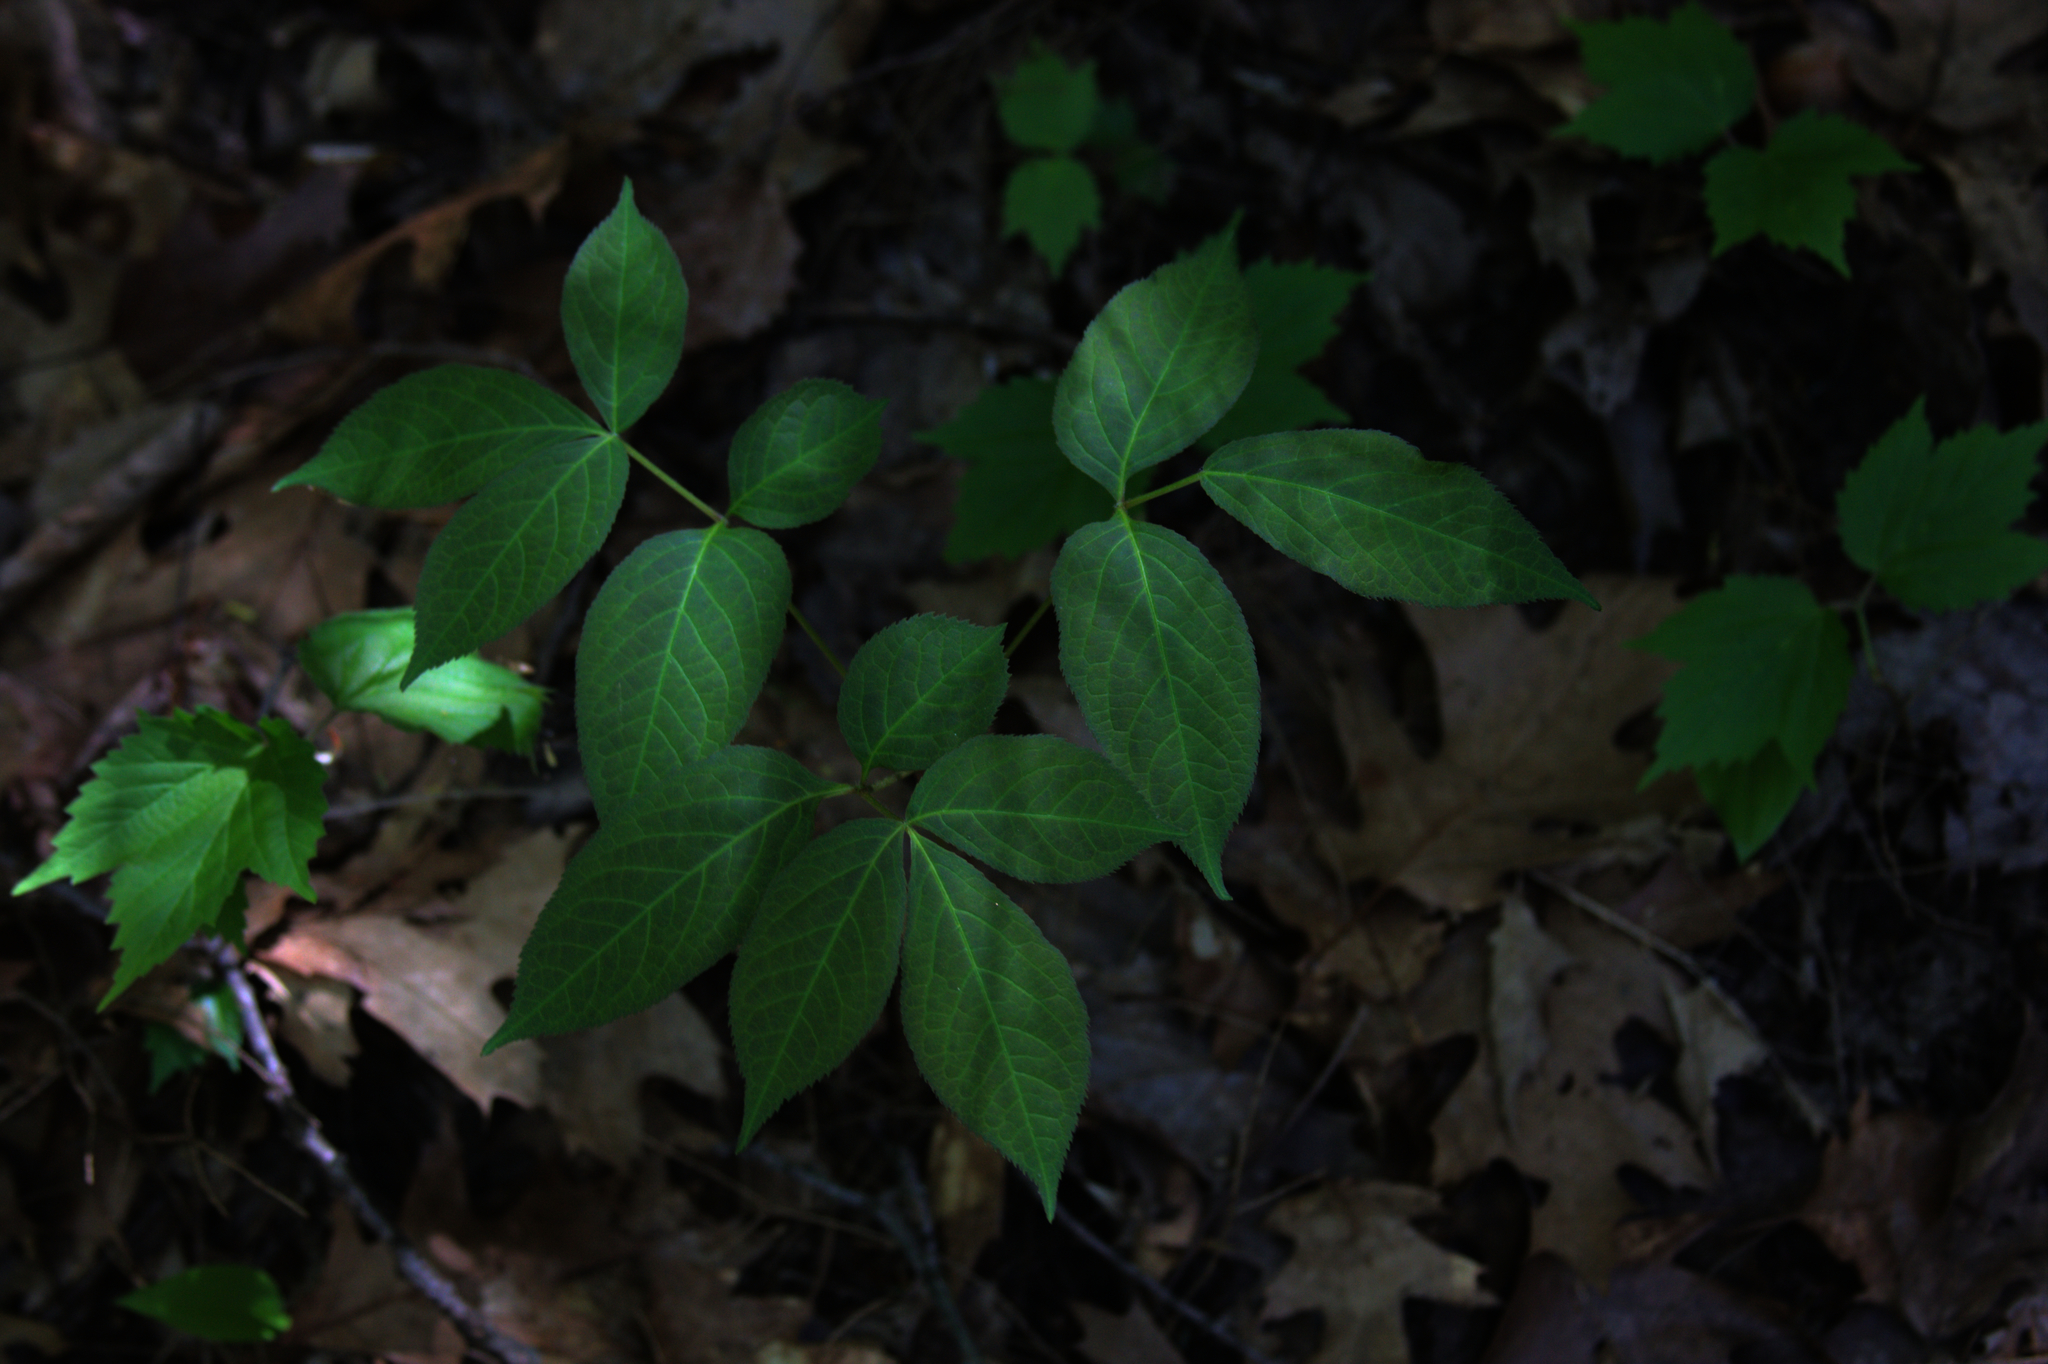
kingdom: Plantae
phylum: Tracheophyta
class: Magnoliopsida
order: Apiales
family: Araliaceae
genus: Aralia
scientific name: Aralia nudicaulis
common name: Wild sarsaparilla
